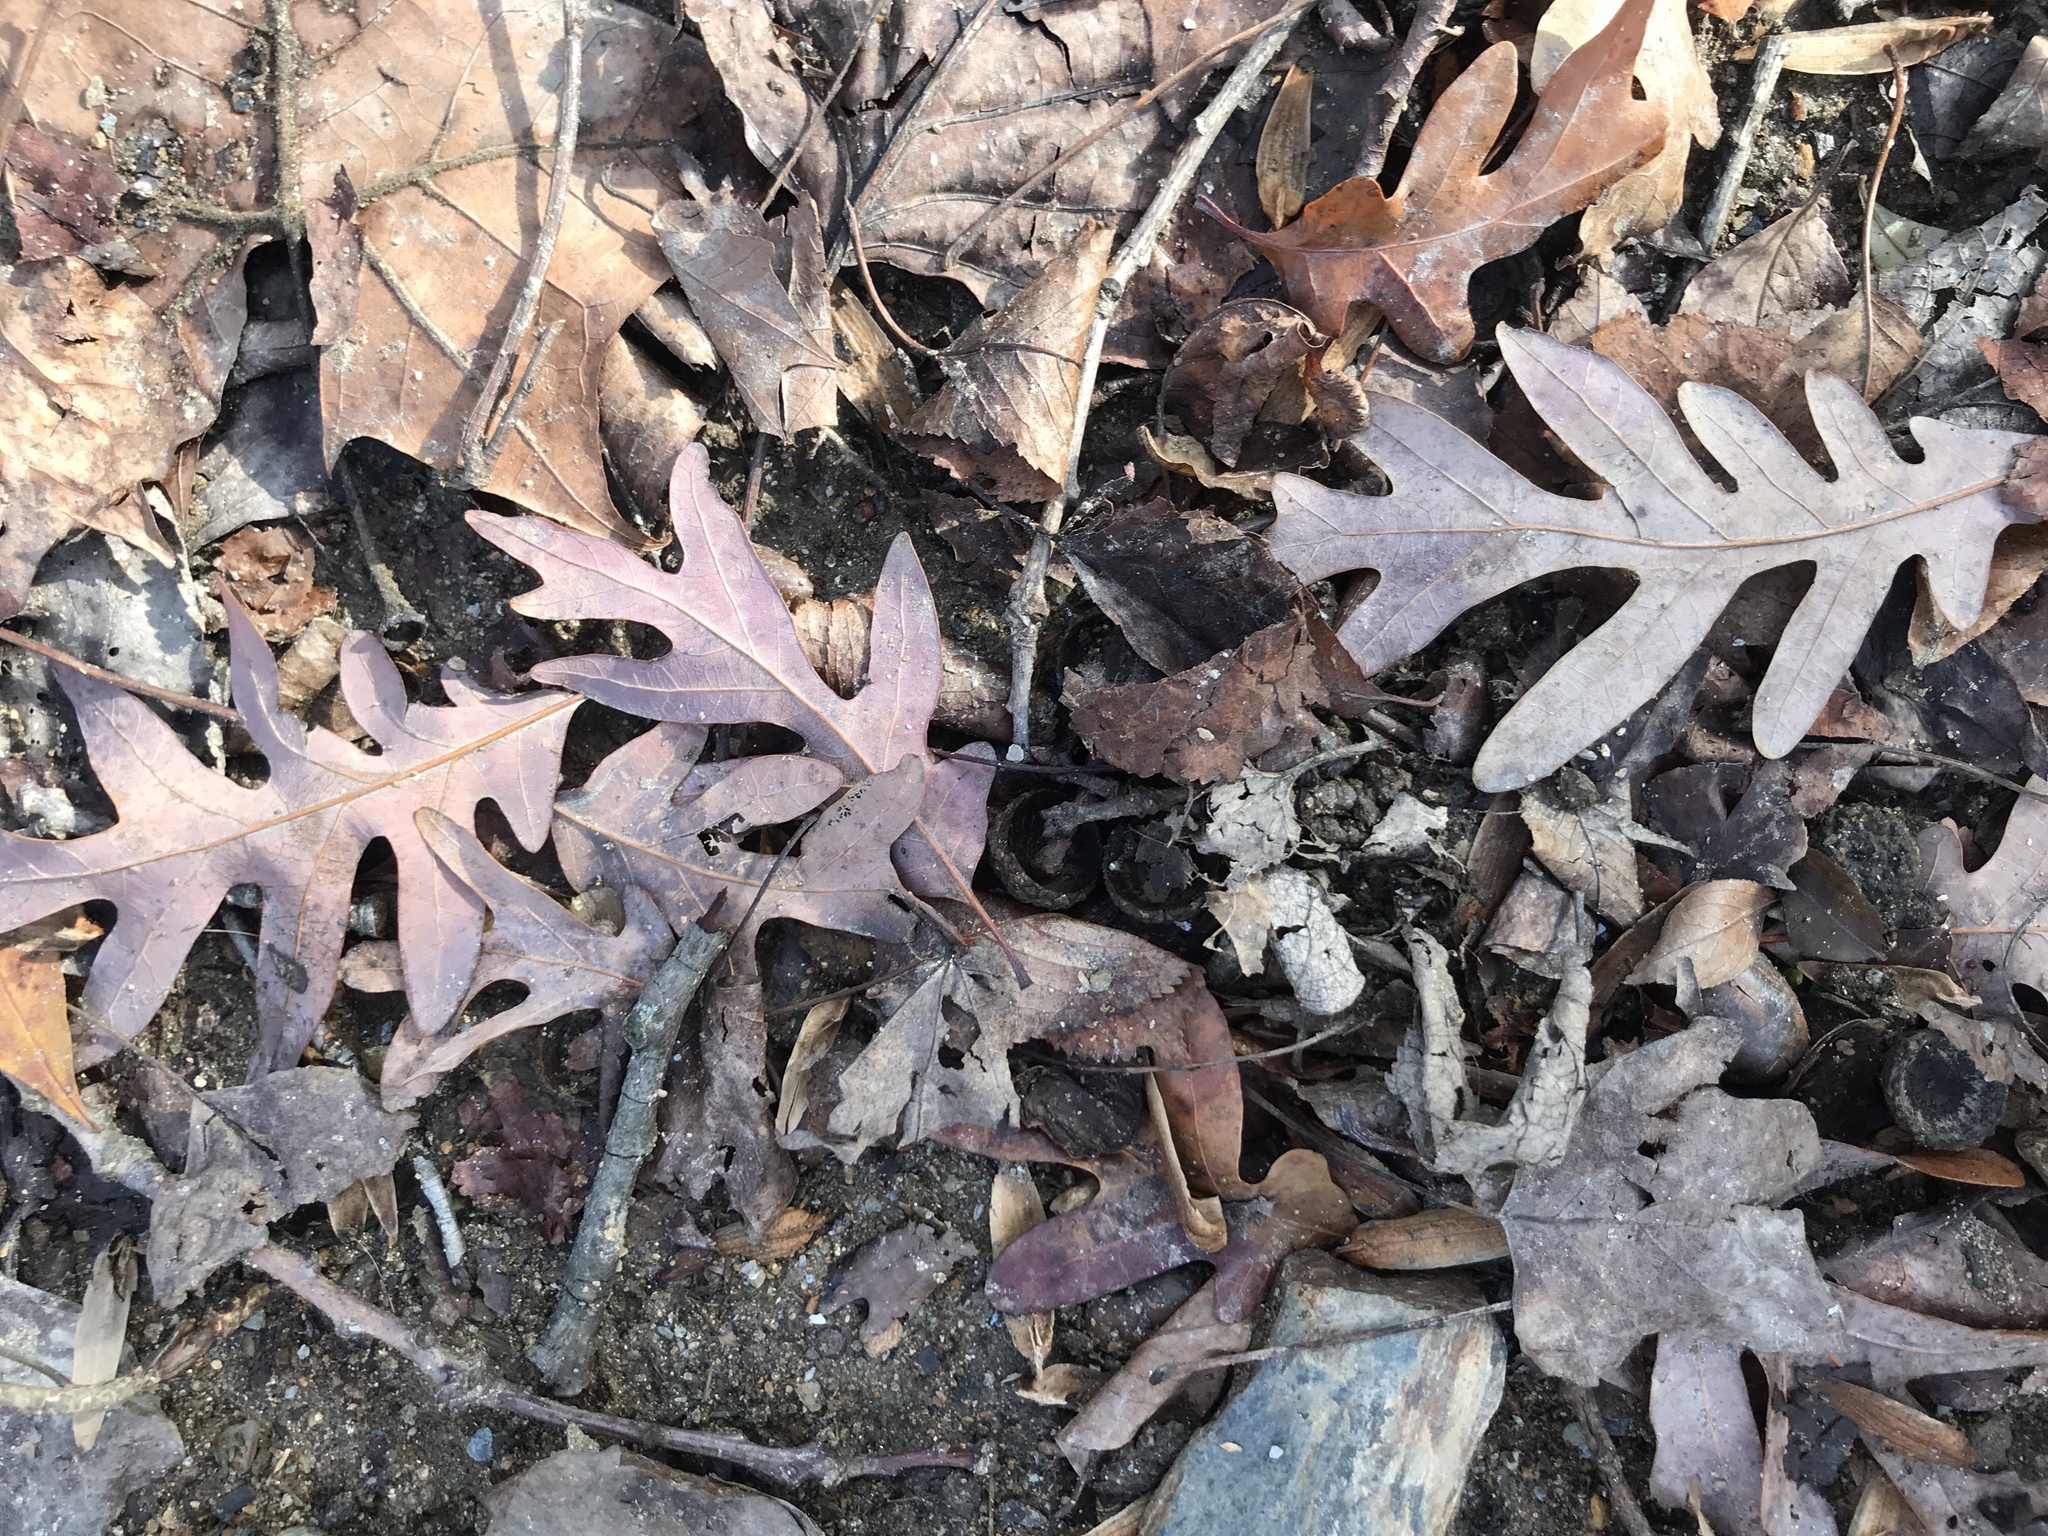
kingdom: Plantae
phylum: Tracheophyta
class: Magnoliopsida
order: Fagales
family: Fagaceae
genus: Quercus
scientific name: Quercus alba
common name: White oak
